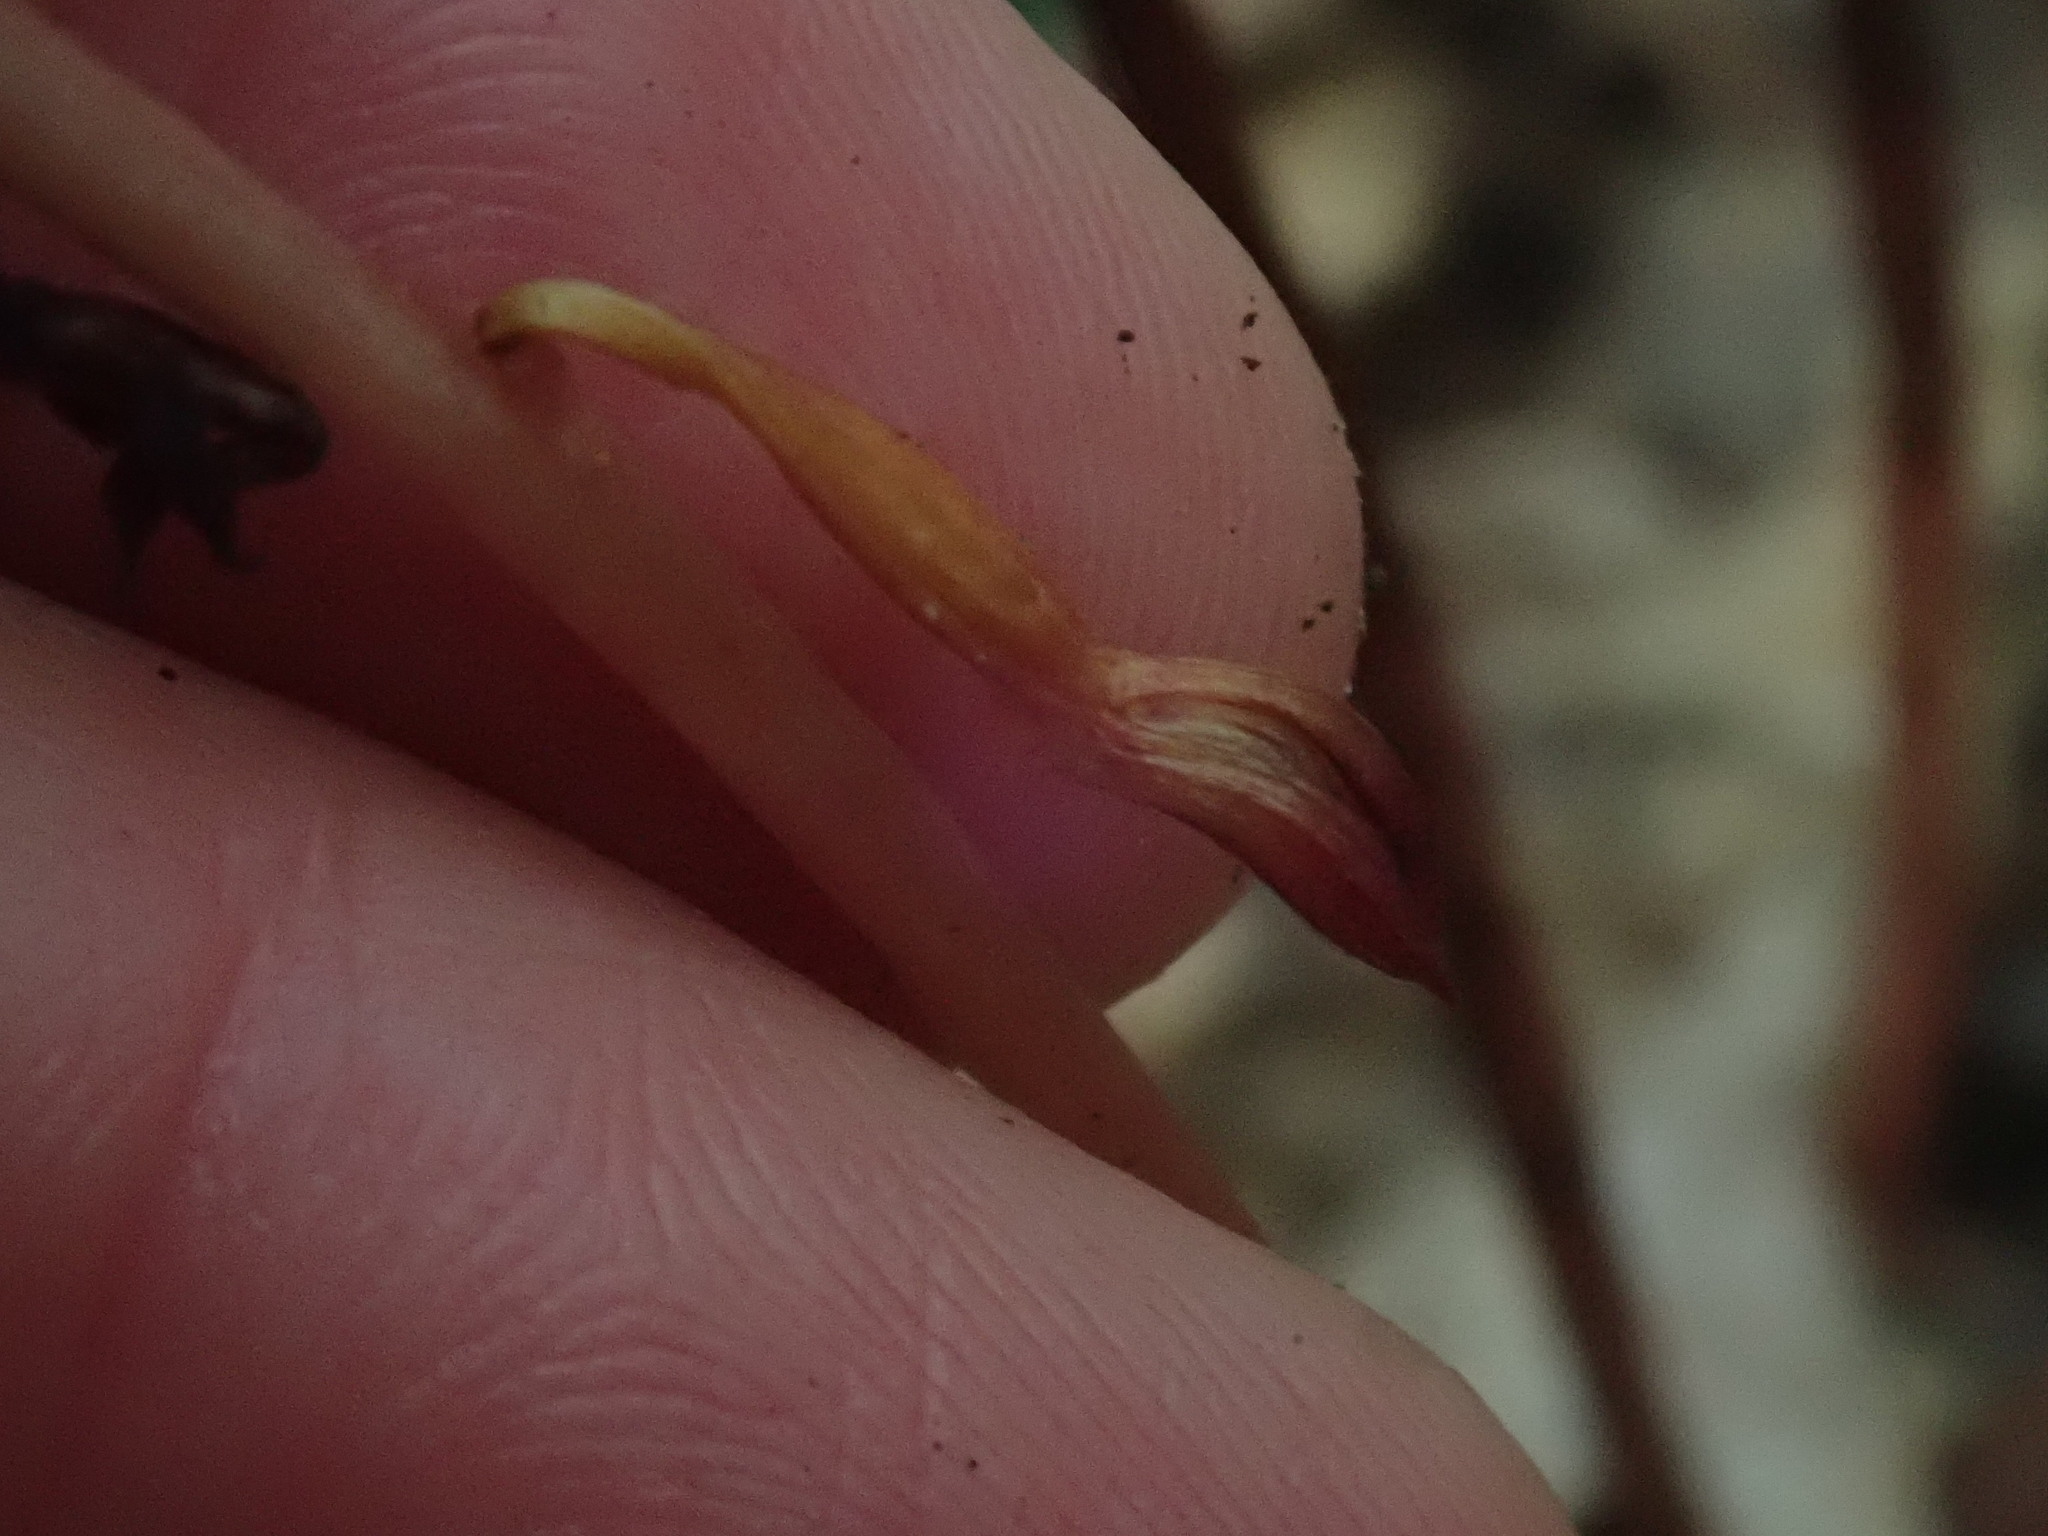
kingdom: Plantae
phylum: Tracheophyta
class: Liliopsida
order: Asparagales
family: Orchidaceae
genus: Corallorhiza
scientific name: Corallorhiza maculata
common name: Spotted coralroot
